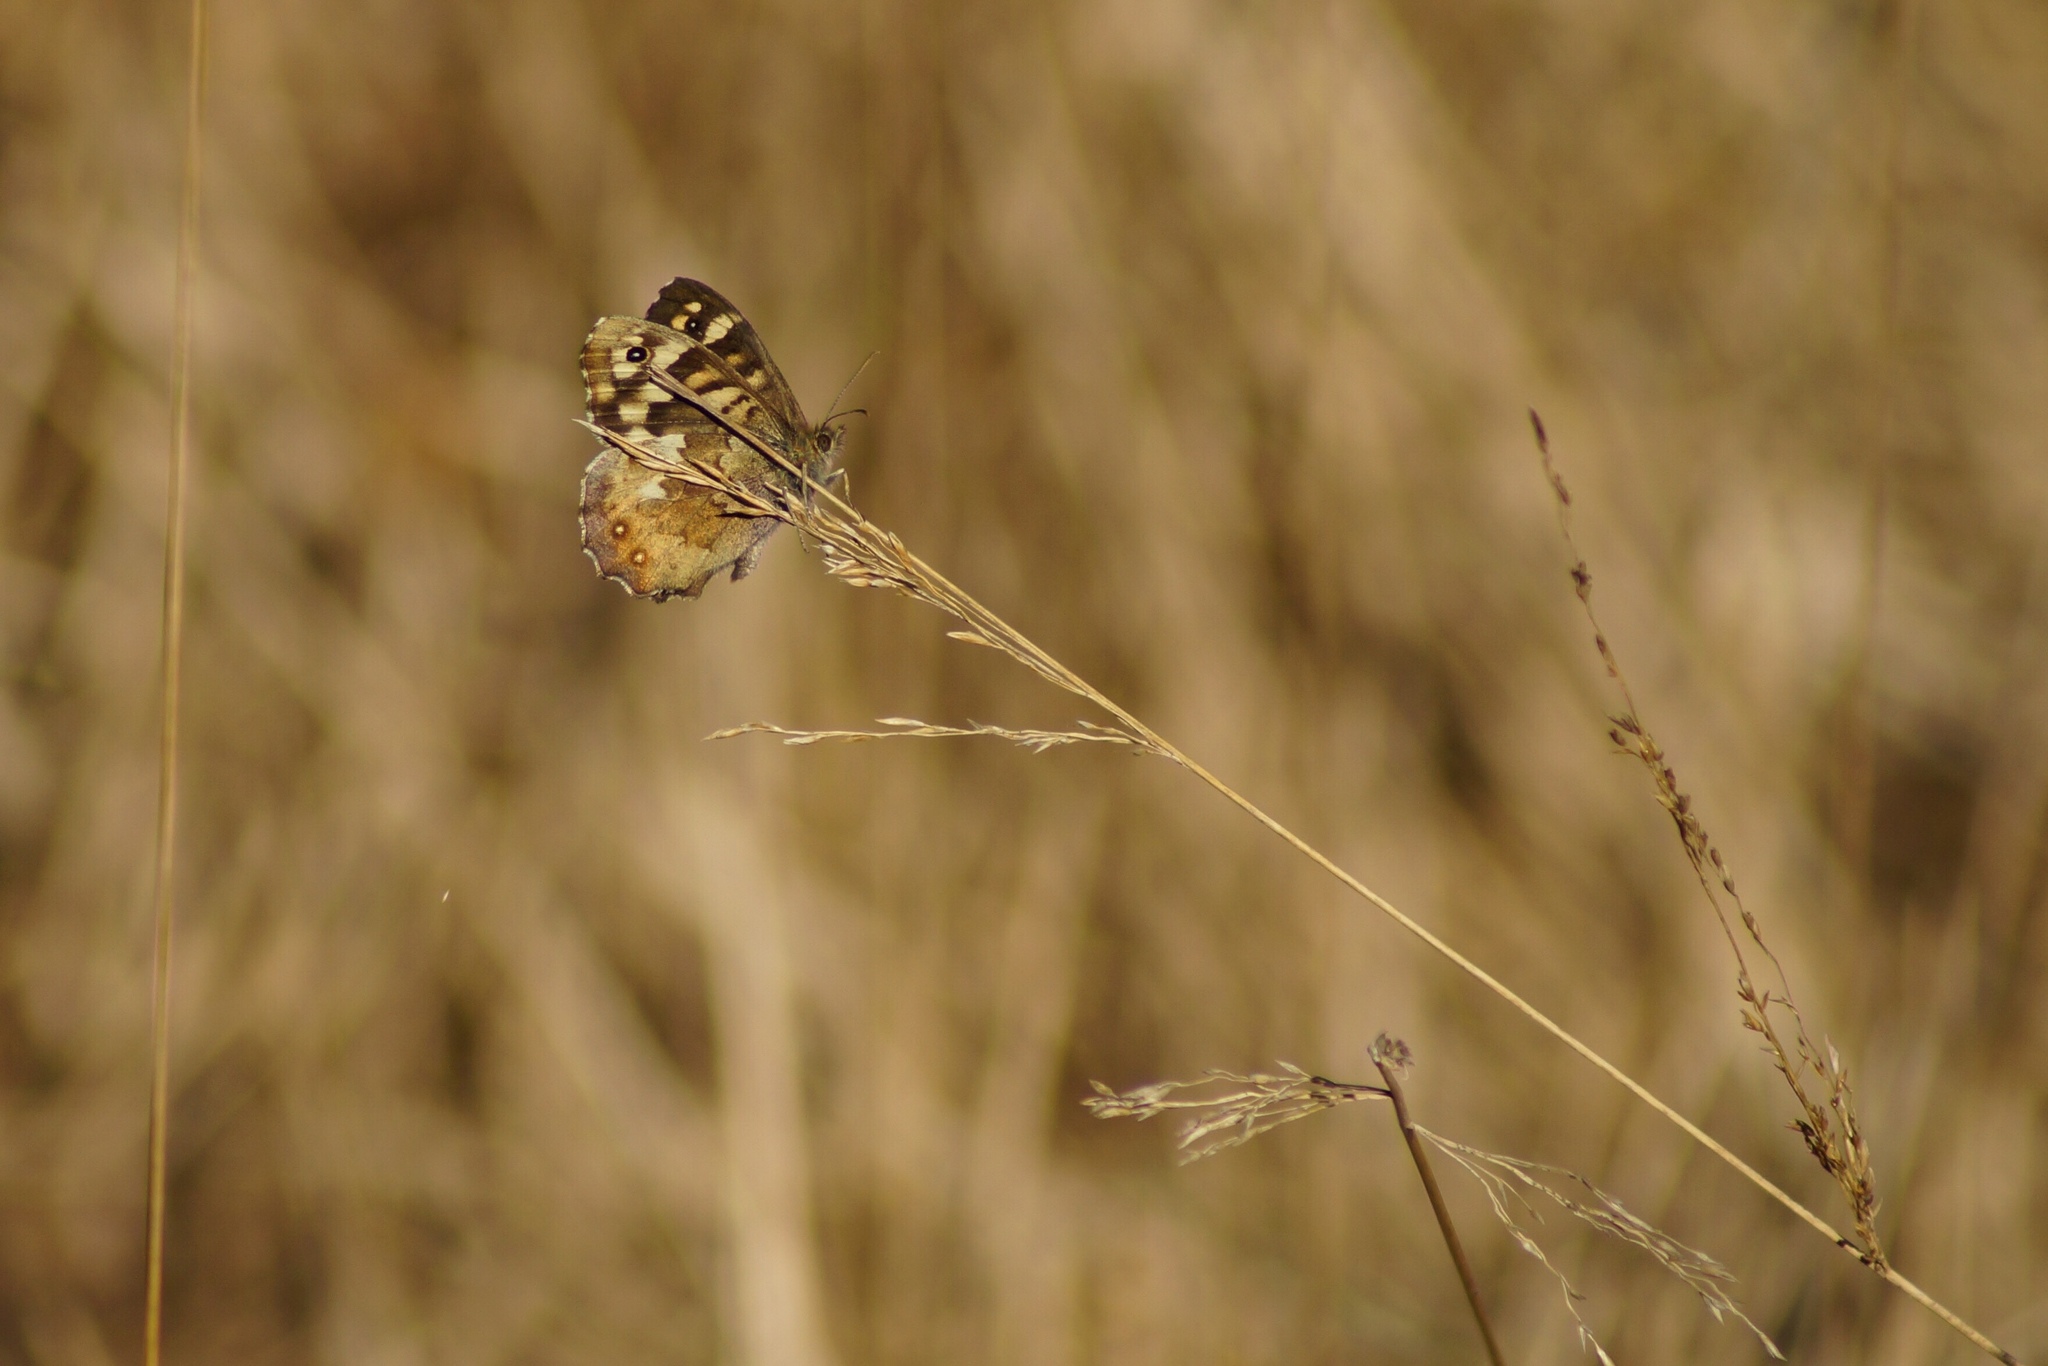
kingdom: Animalia
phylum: Arthropoda
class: Insecta
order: Lepidoptera
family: Nymphalidae
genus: Pararge
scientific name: Pararge aegeria
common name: Speckled wood
